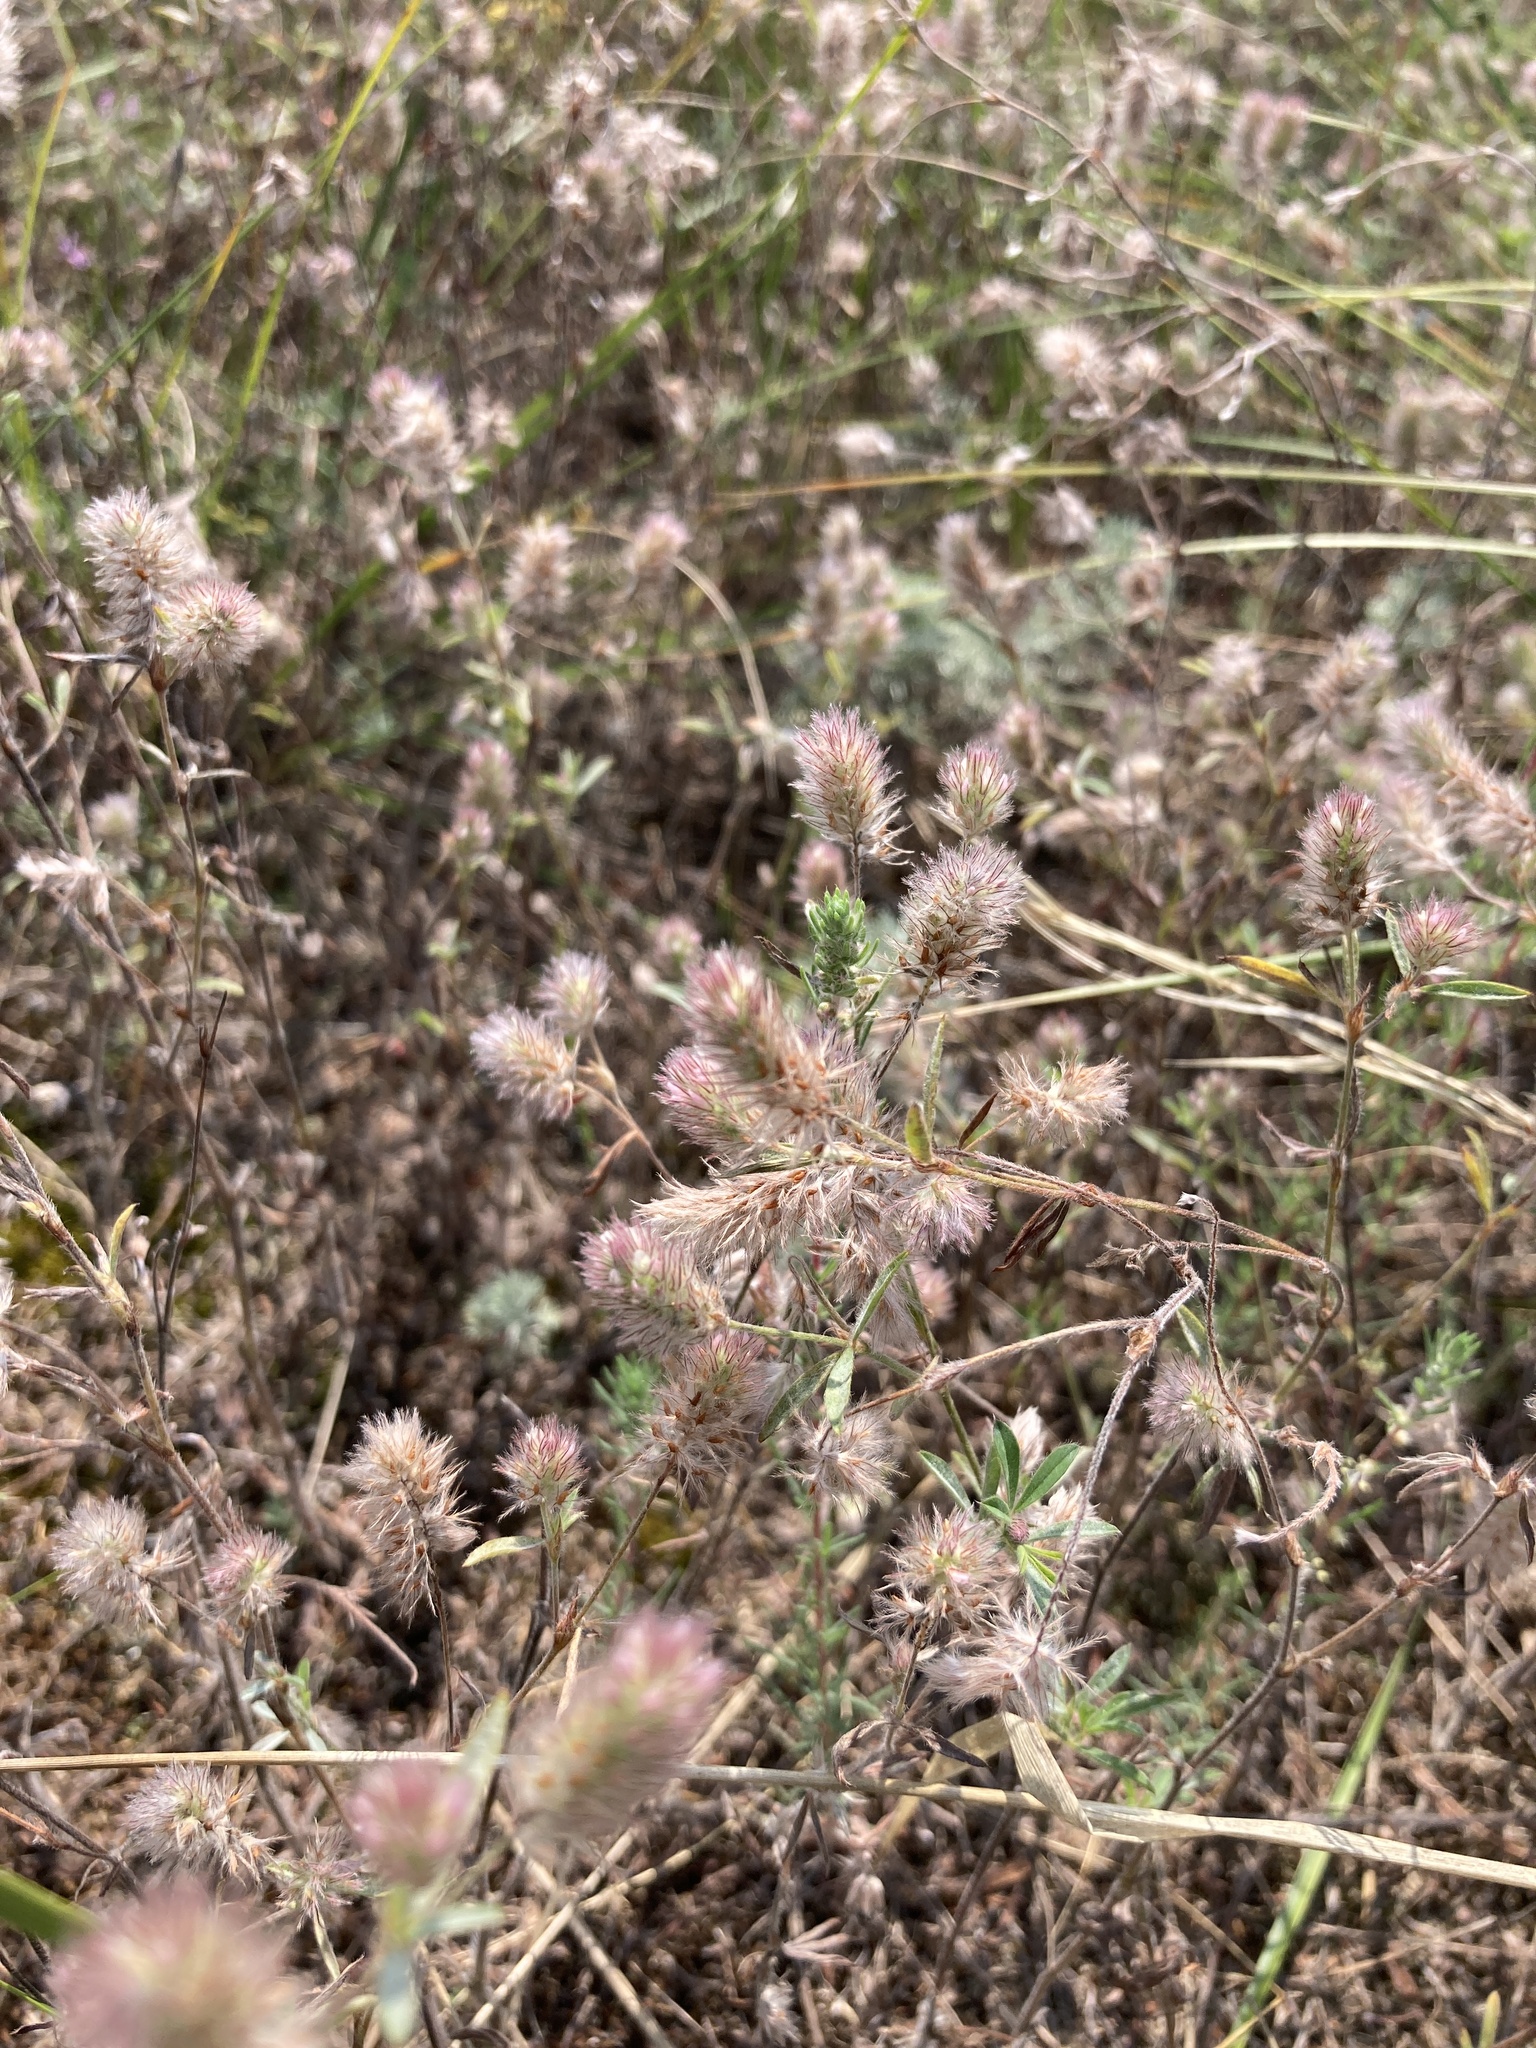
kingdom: Plantae
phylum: Tracheophyta
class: Magnoliopsida
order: Fabales
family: Fabaceae
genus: Trifolium
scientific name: Trifolium arvense
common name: Hare's-foot clover
